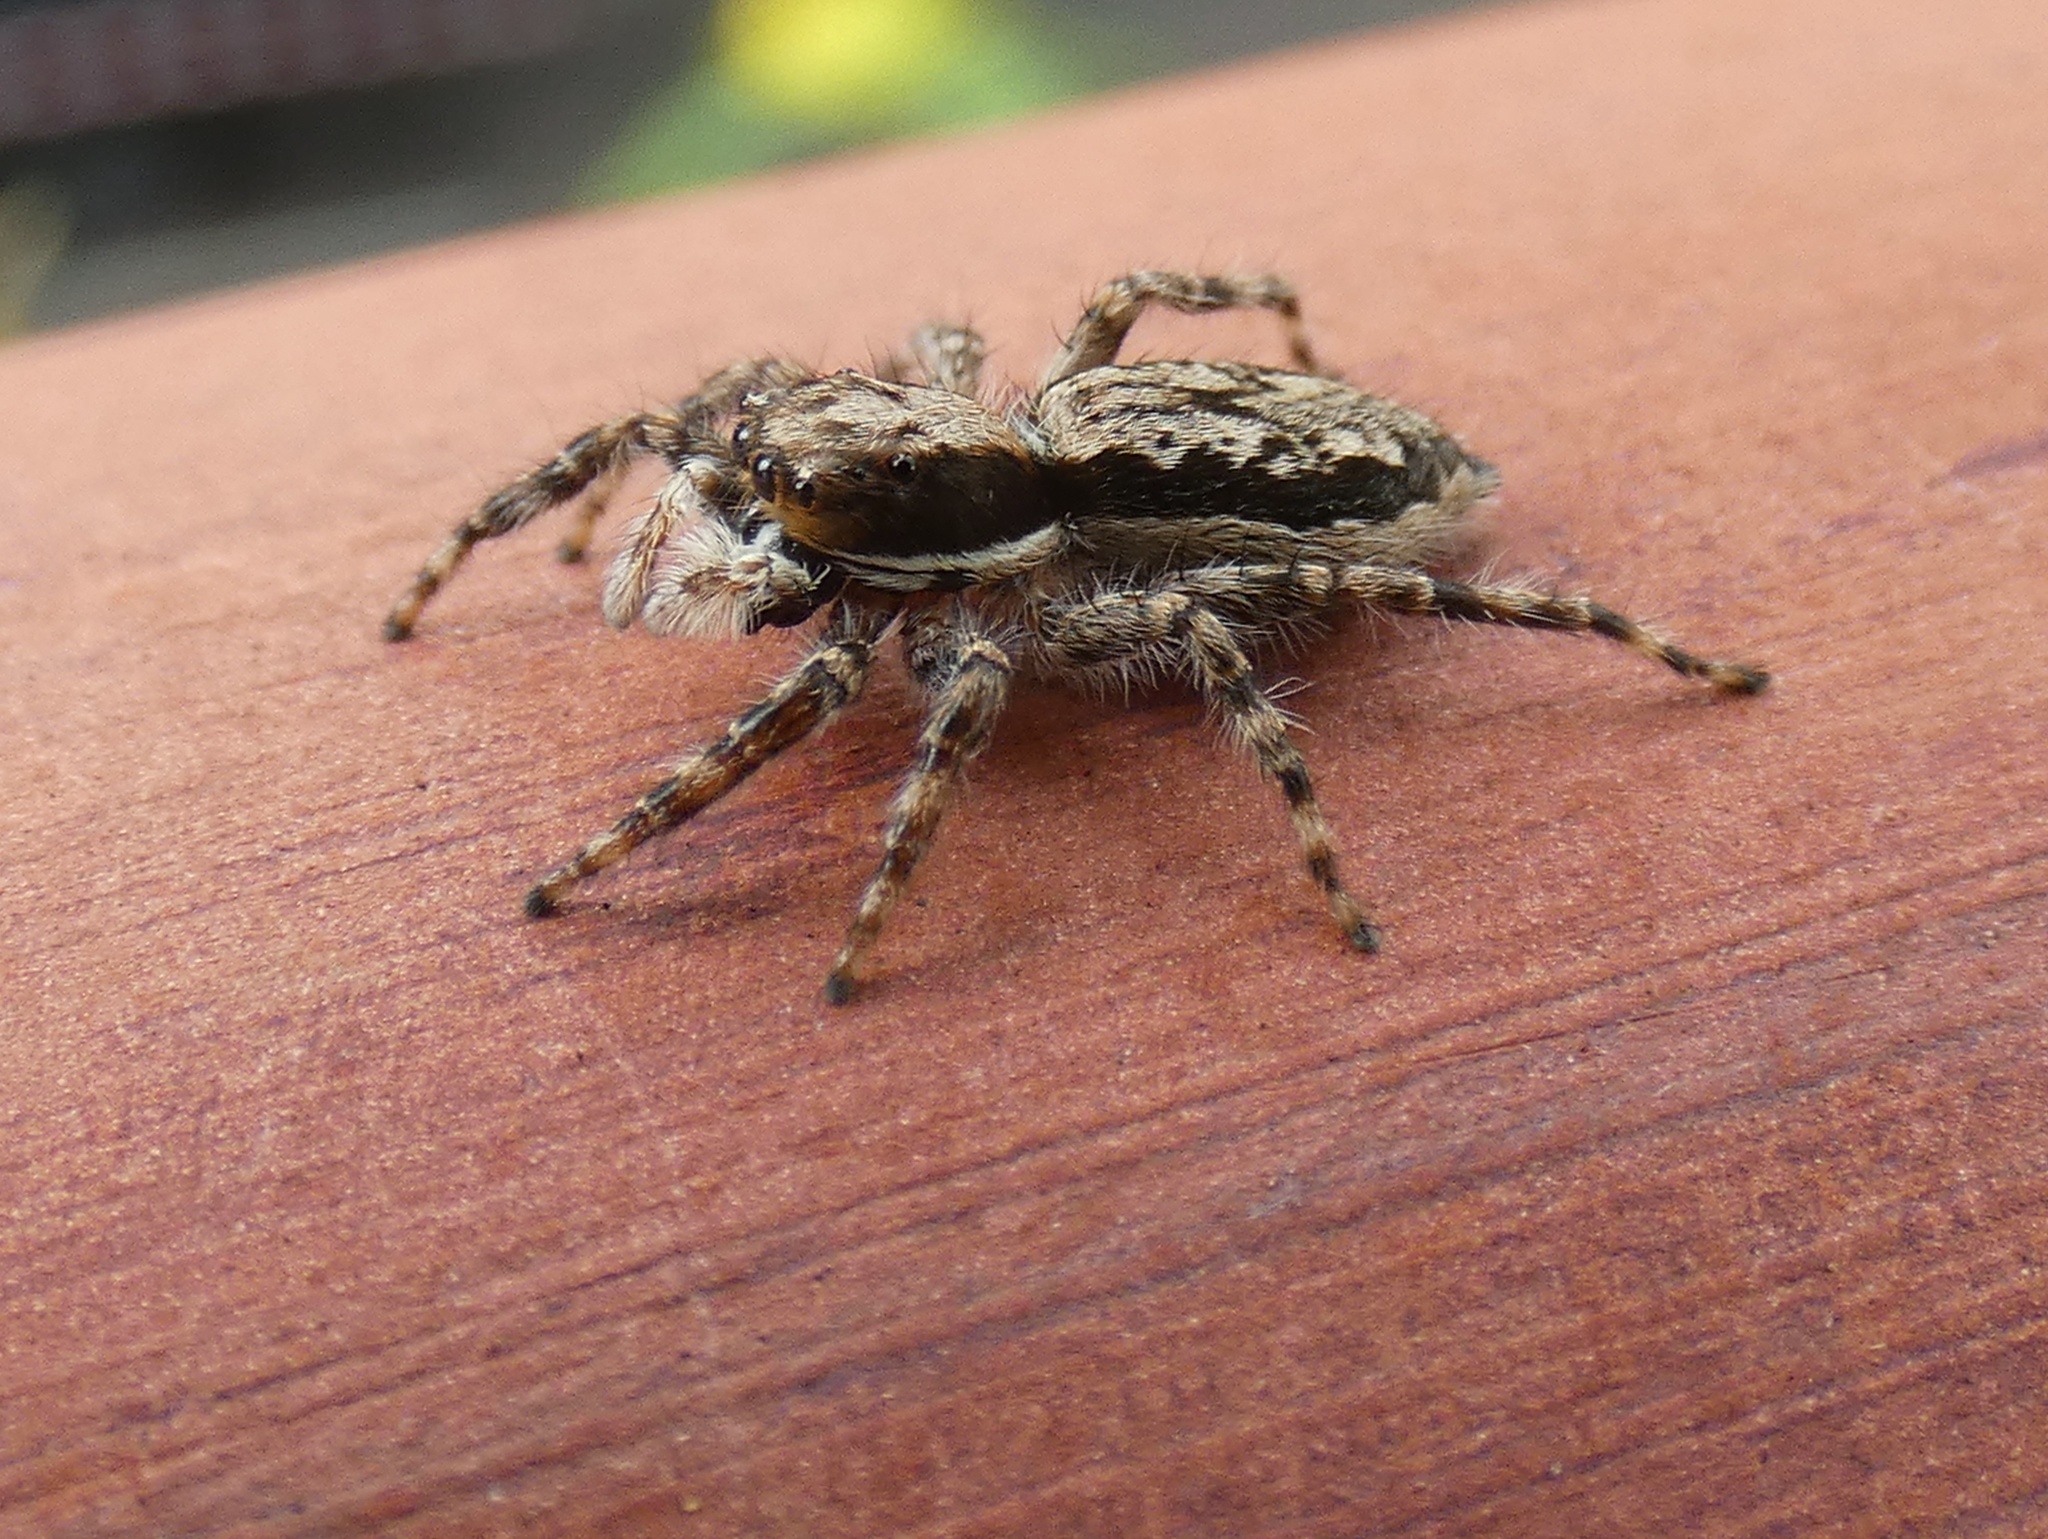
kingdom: Animalia
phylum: Arthropoda
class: Arachnida
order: Araneae
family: Salticidae
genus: Menemerus
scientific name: Menemerus bivittatus
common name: Gray wall jumper
